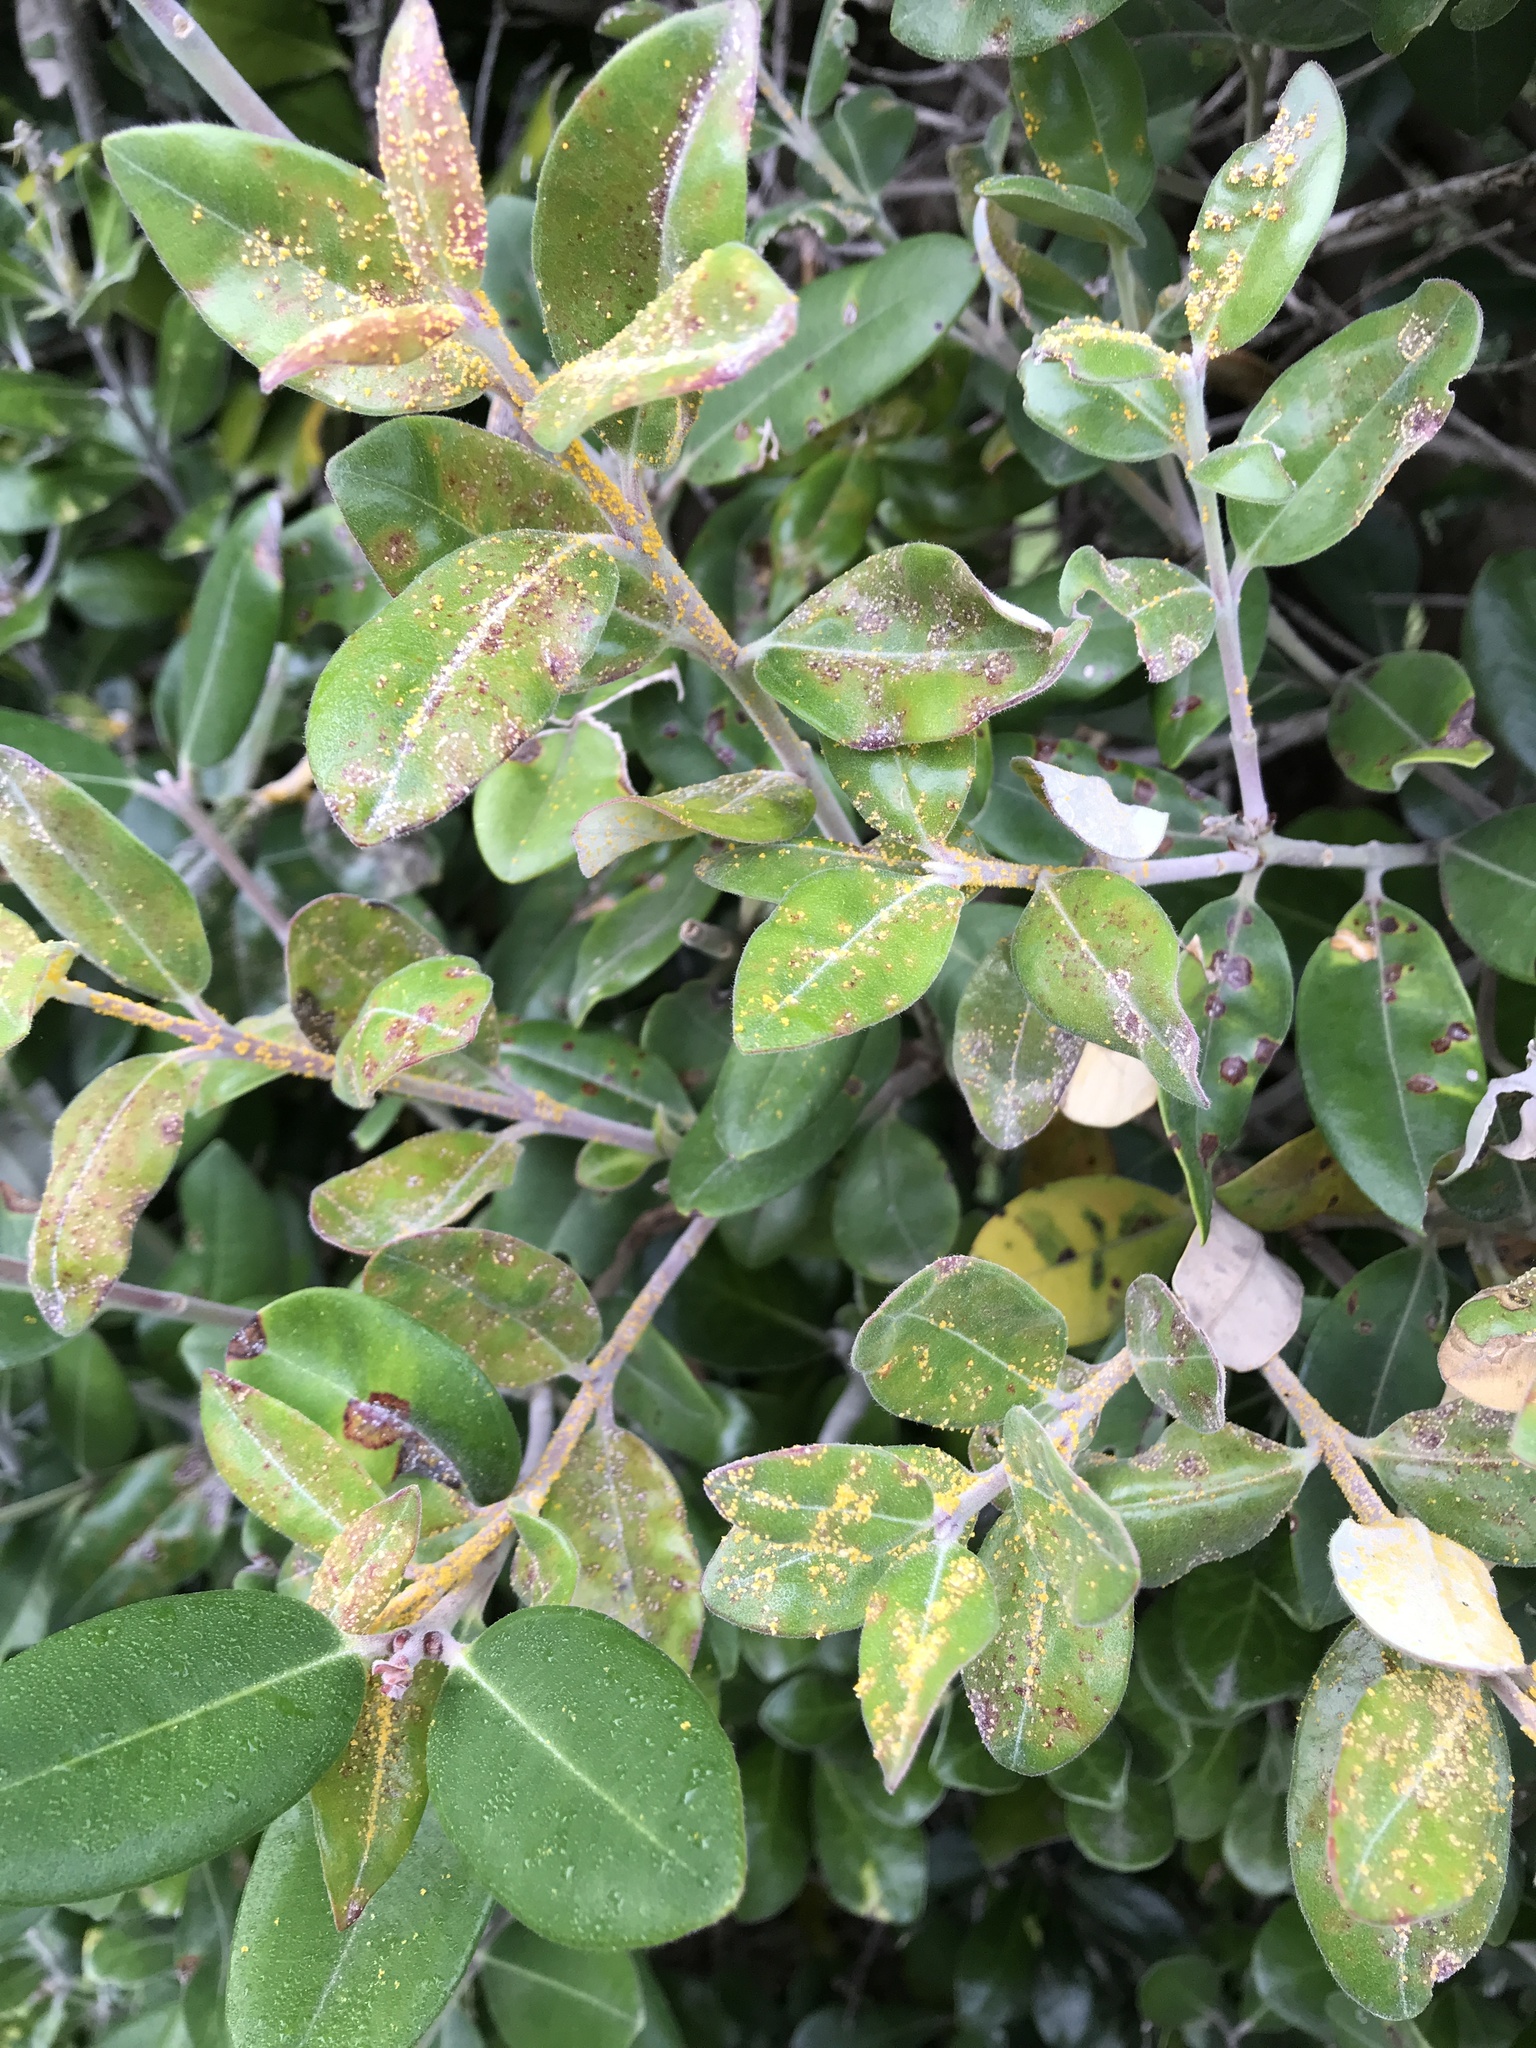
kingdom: Fungi
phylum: Basidiomycota
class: Pucciniomycetes
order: Pucciniales
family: Sphaerophragmiaceae
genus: Austropuccinia
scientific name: Austropuccinia psidii
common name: Myrtle rust
